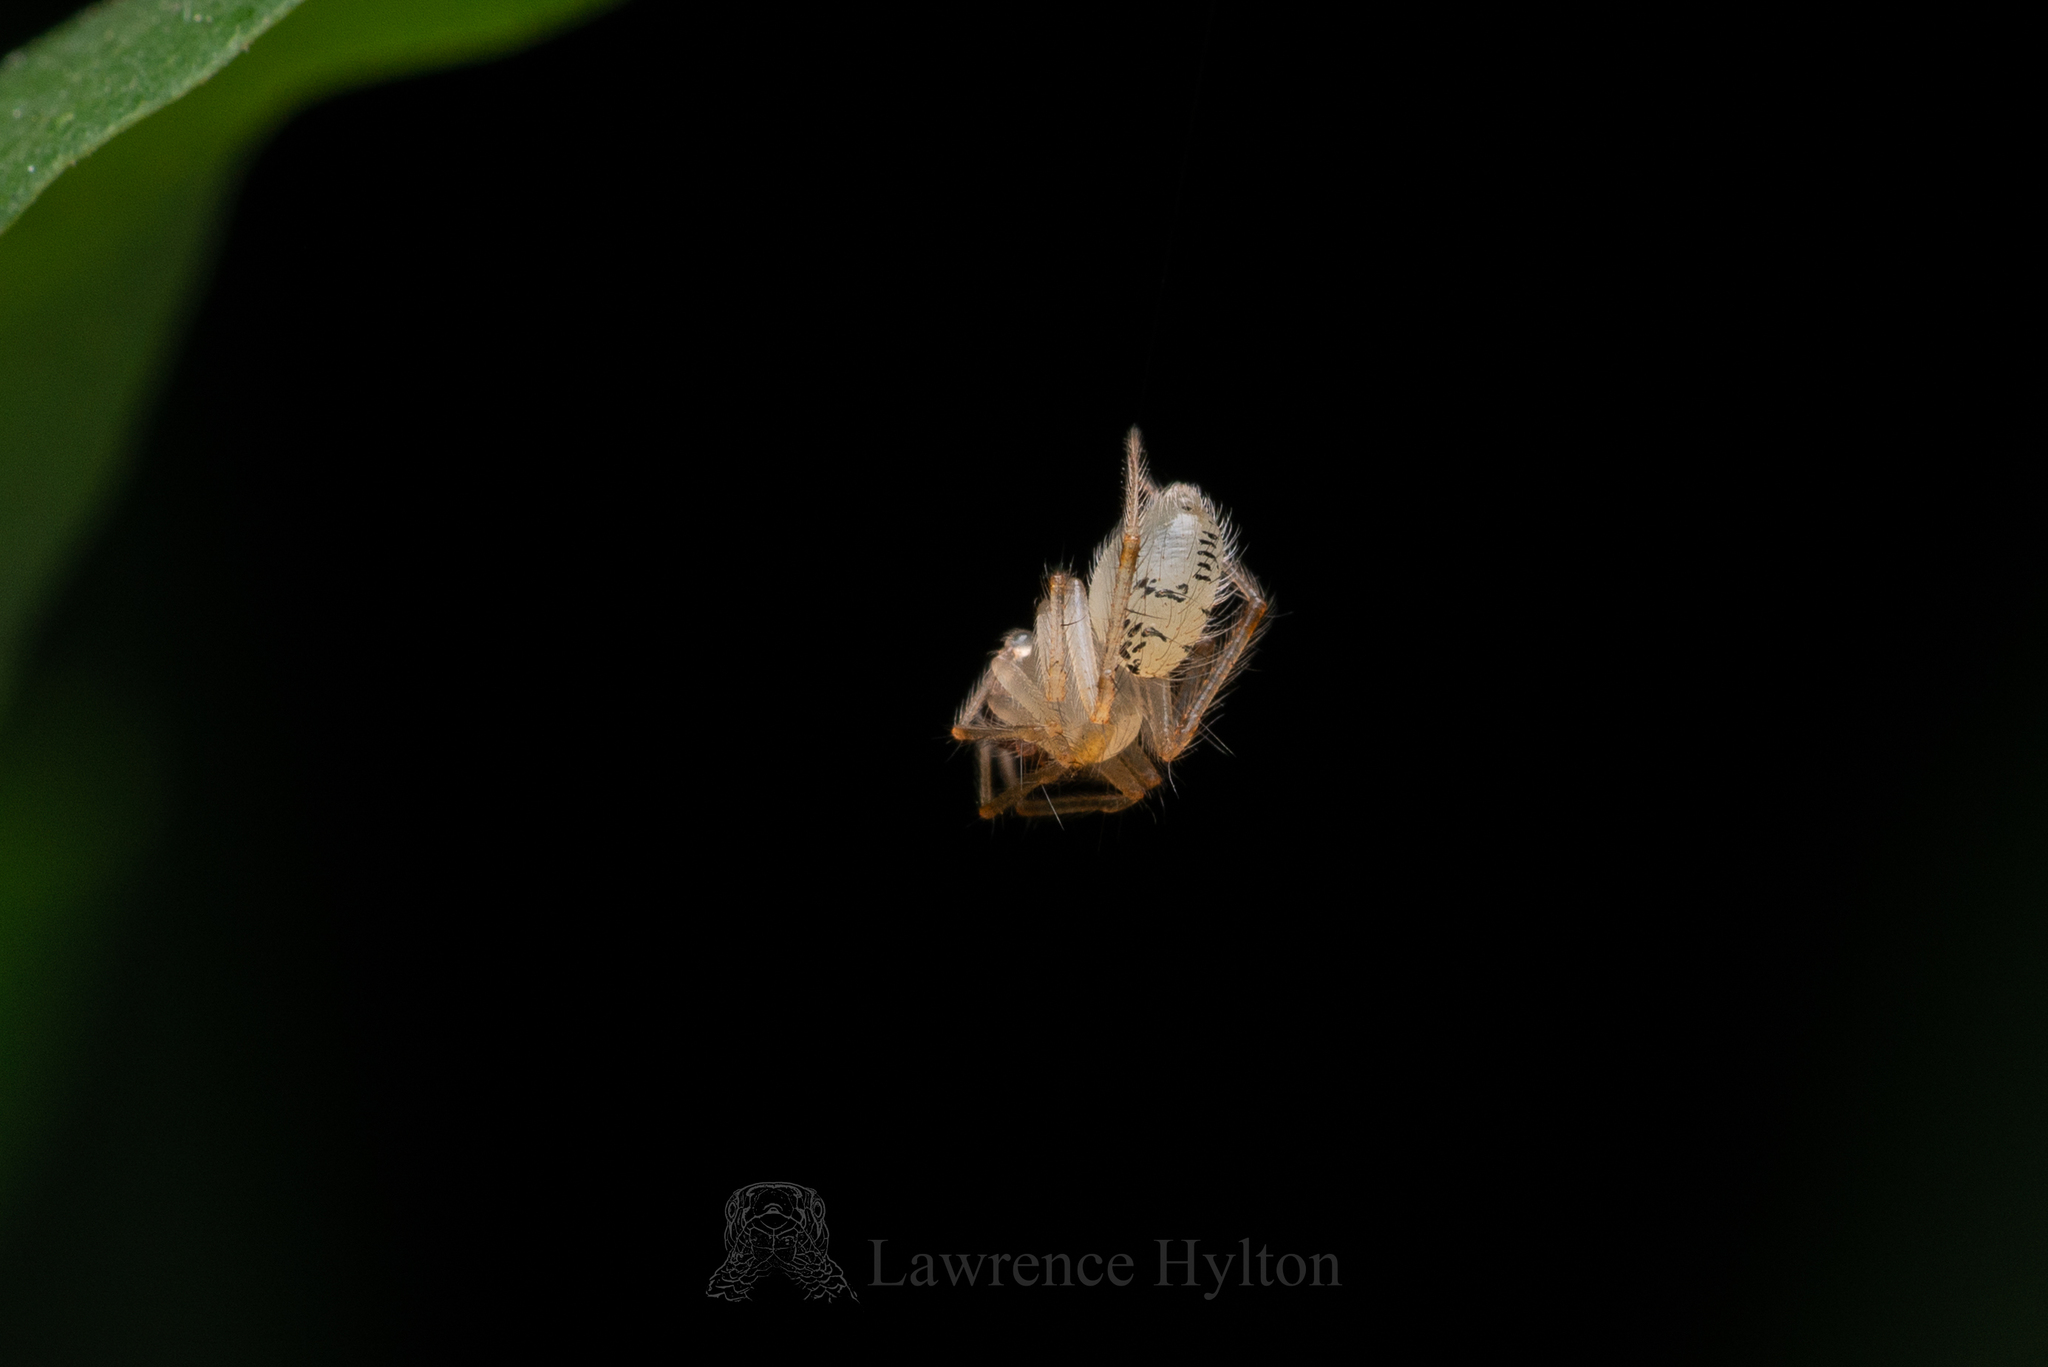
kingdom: Animalia
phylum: Arthropoda
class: Arachnida
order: Araneae
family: Theridiidae
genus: Phycosoma
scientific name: Phycosoma digitula
